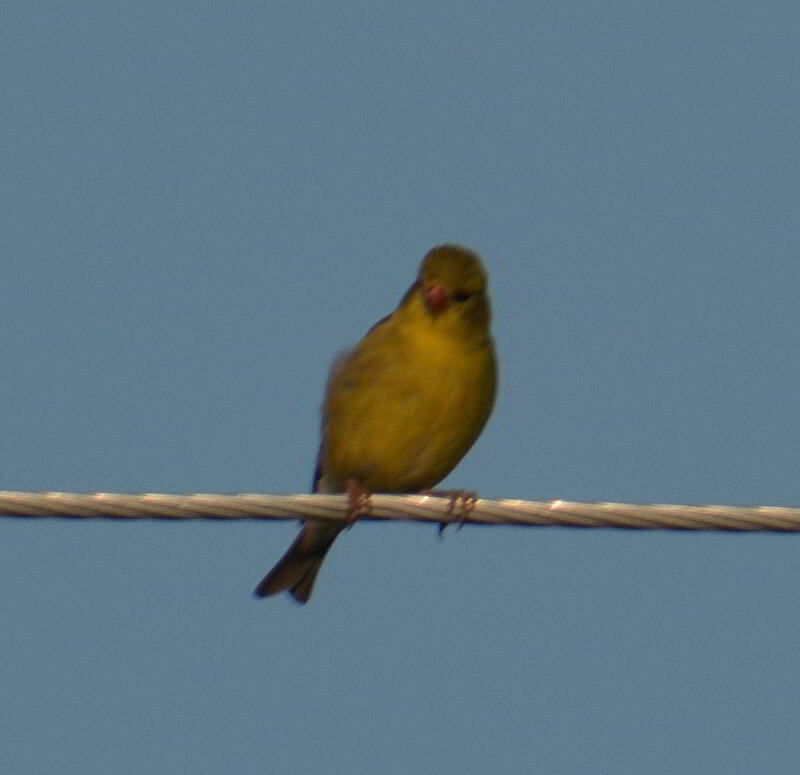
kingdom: Animalia
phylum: Chordata
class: Aves
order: Passeriformes
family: Fringillidae
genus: Spinus
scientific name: Spinus tristis
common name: American goldfinch
